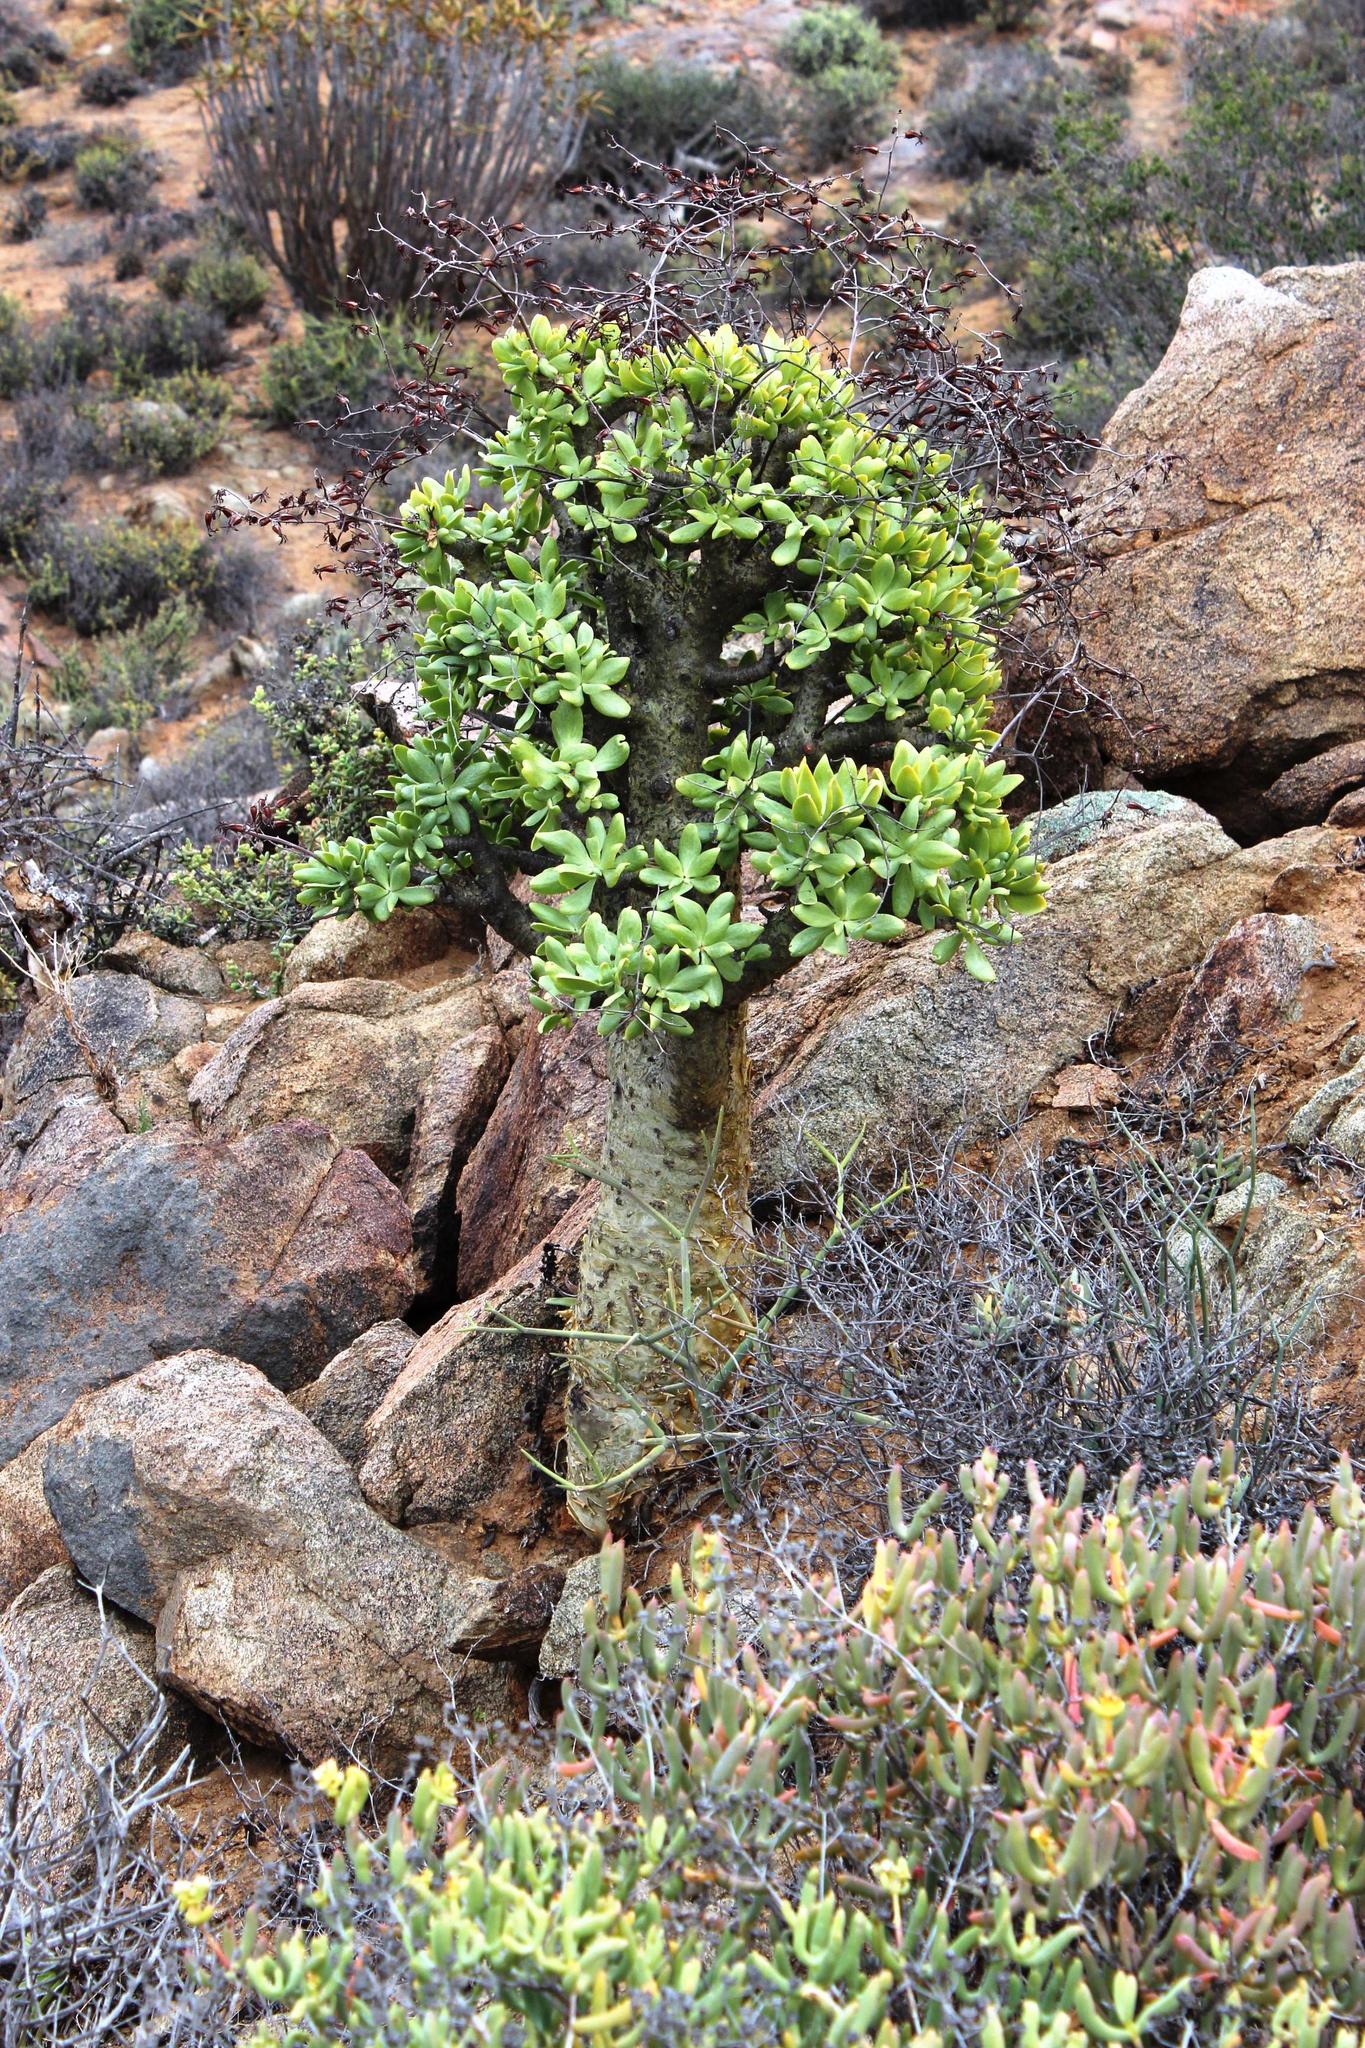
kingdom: Plantae
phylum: Tracheophyta
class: Magnoliopsida
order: Saxifragales
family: Crassulaceae
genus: Tylecodon
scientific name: Tylecodon paniculatus
